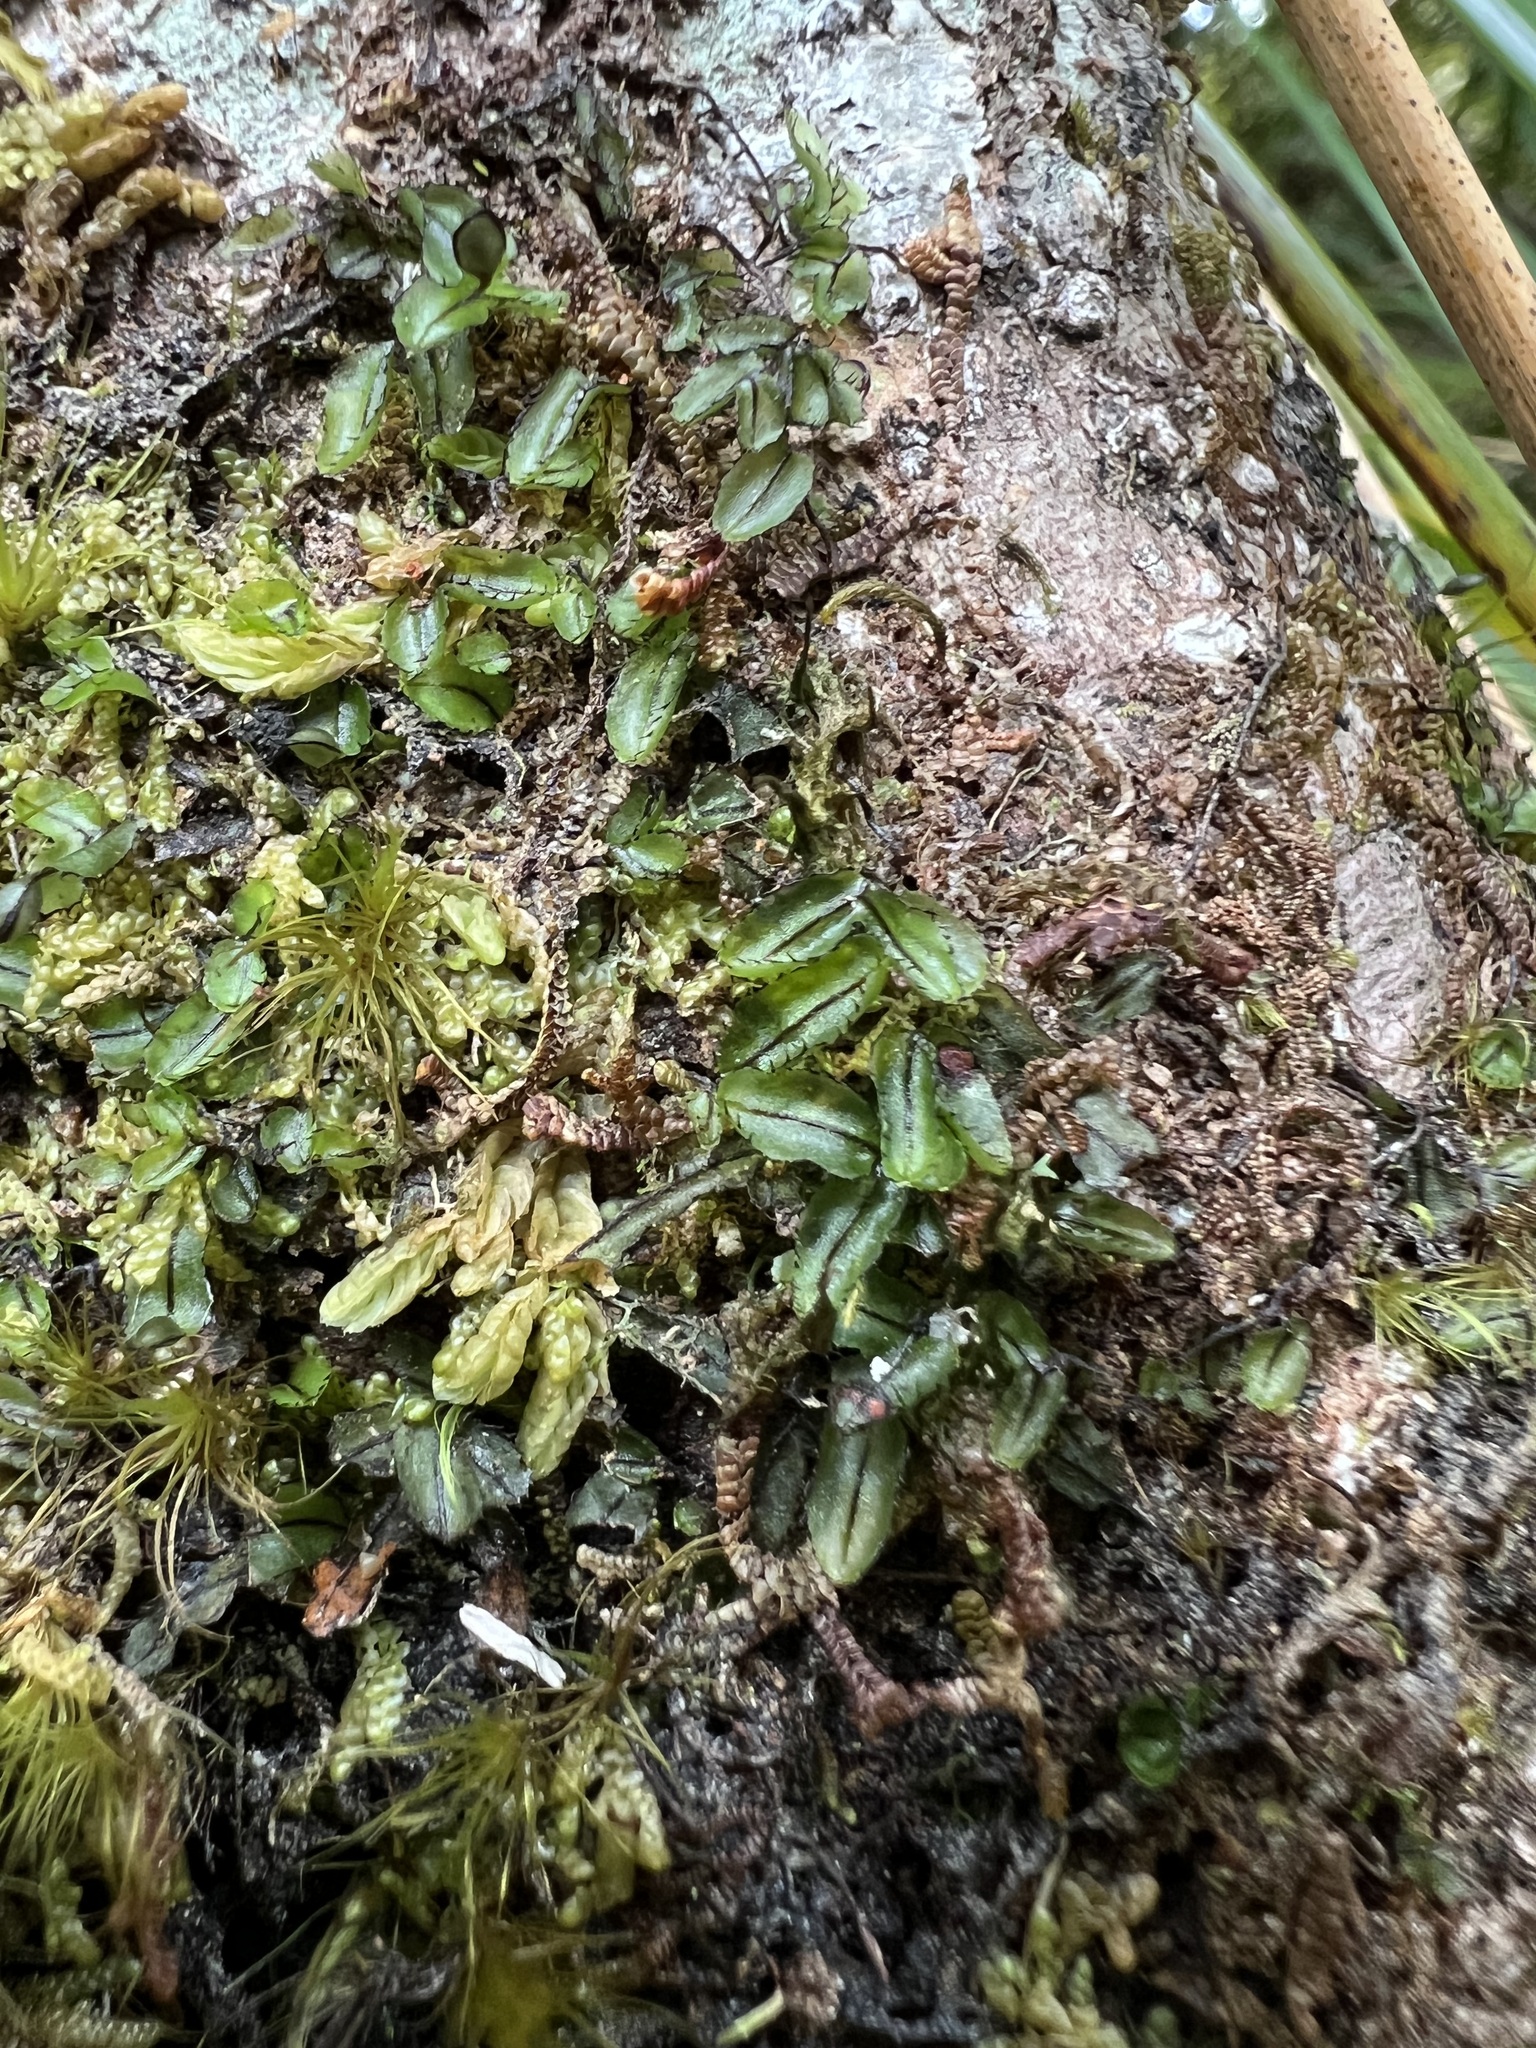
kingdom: Plantae
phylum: Tracheophyta
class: Polypodiopsida
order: Hymenophyllales
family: Hymenophyllaceae
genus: Hymenophyllum
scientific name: Hymenophyllum armstrongii
